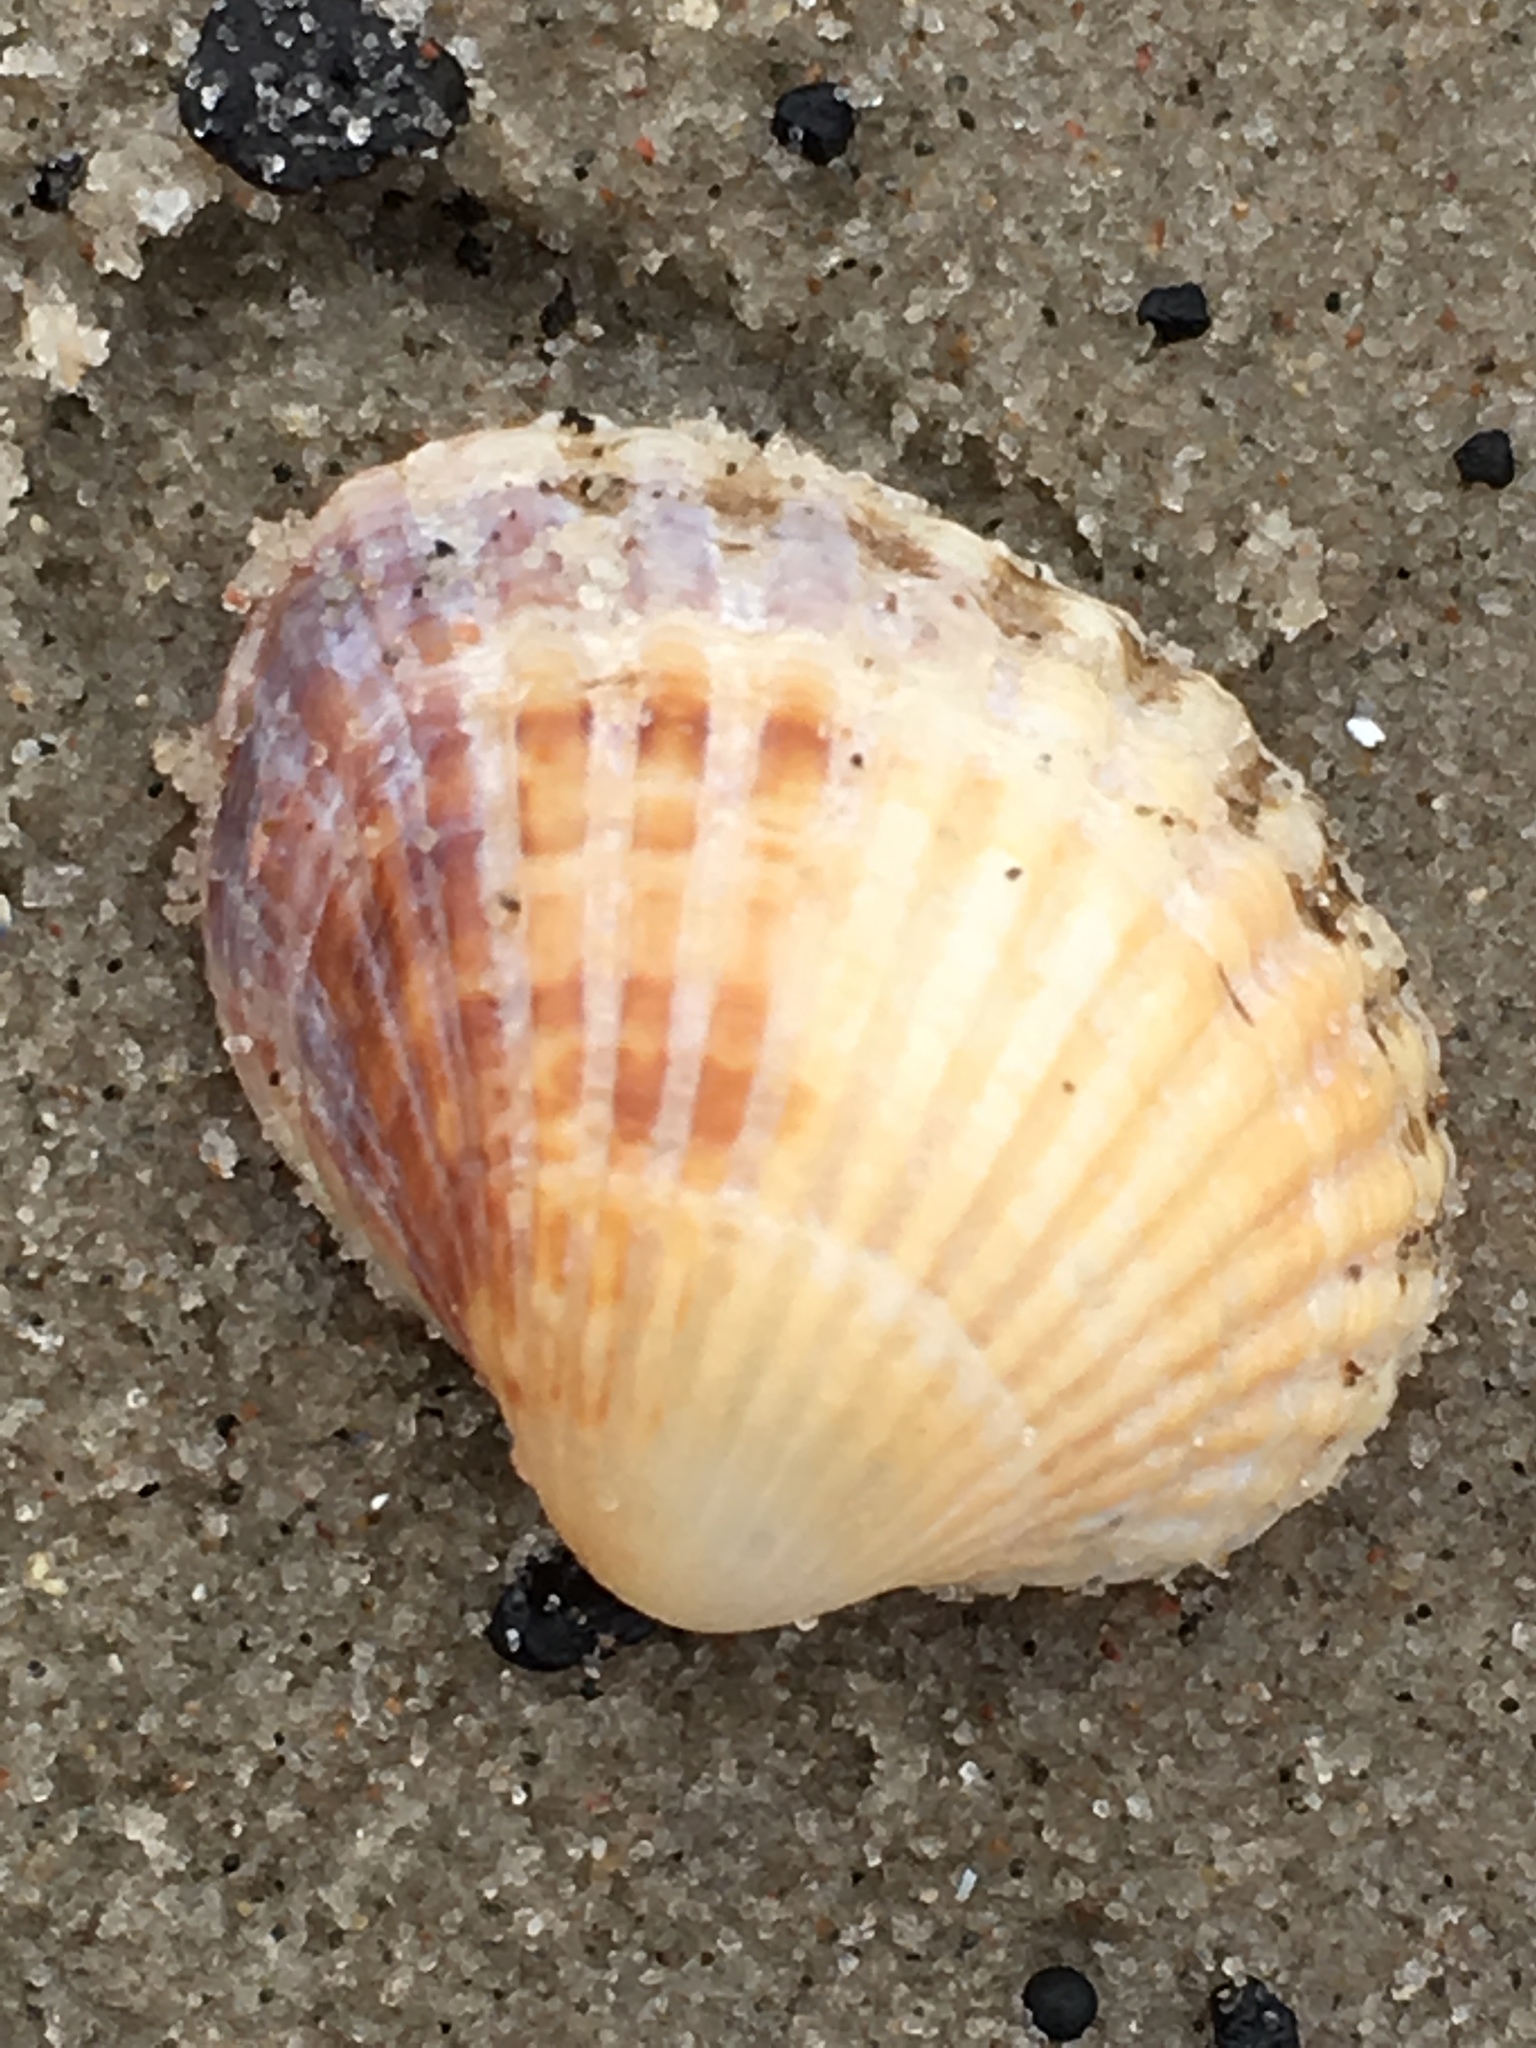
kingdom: Animalia
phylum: Mollusca
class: Bivalvia
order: Cardiida
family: Cardiidae
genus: Cerastoderma
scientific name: Cerastoderma glaucum
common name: Lagoon cockle
